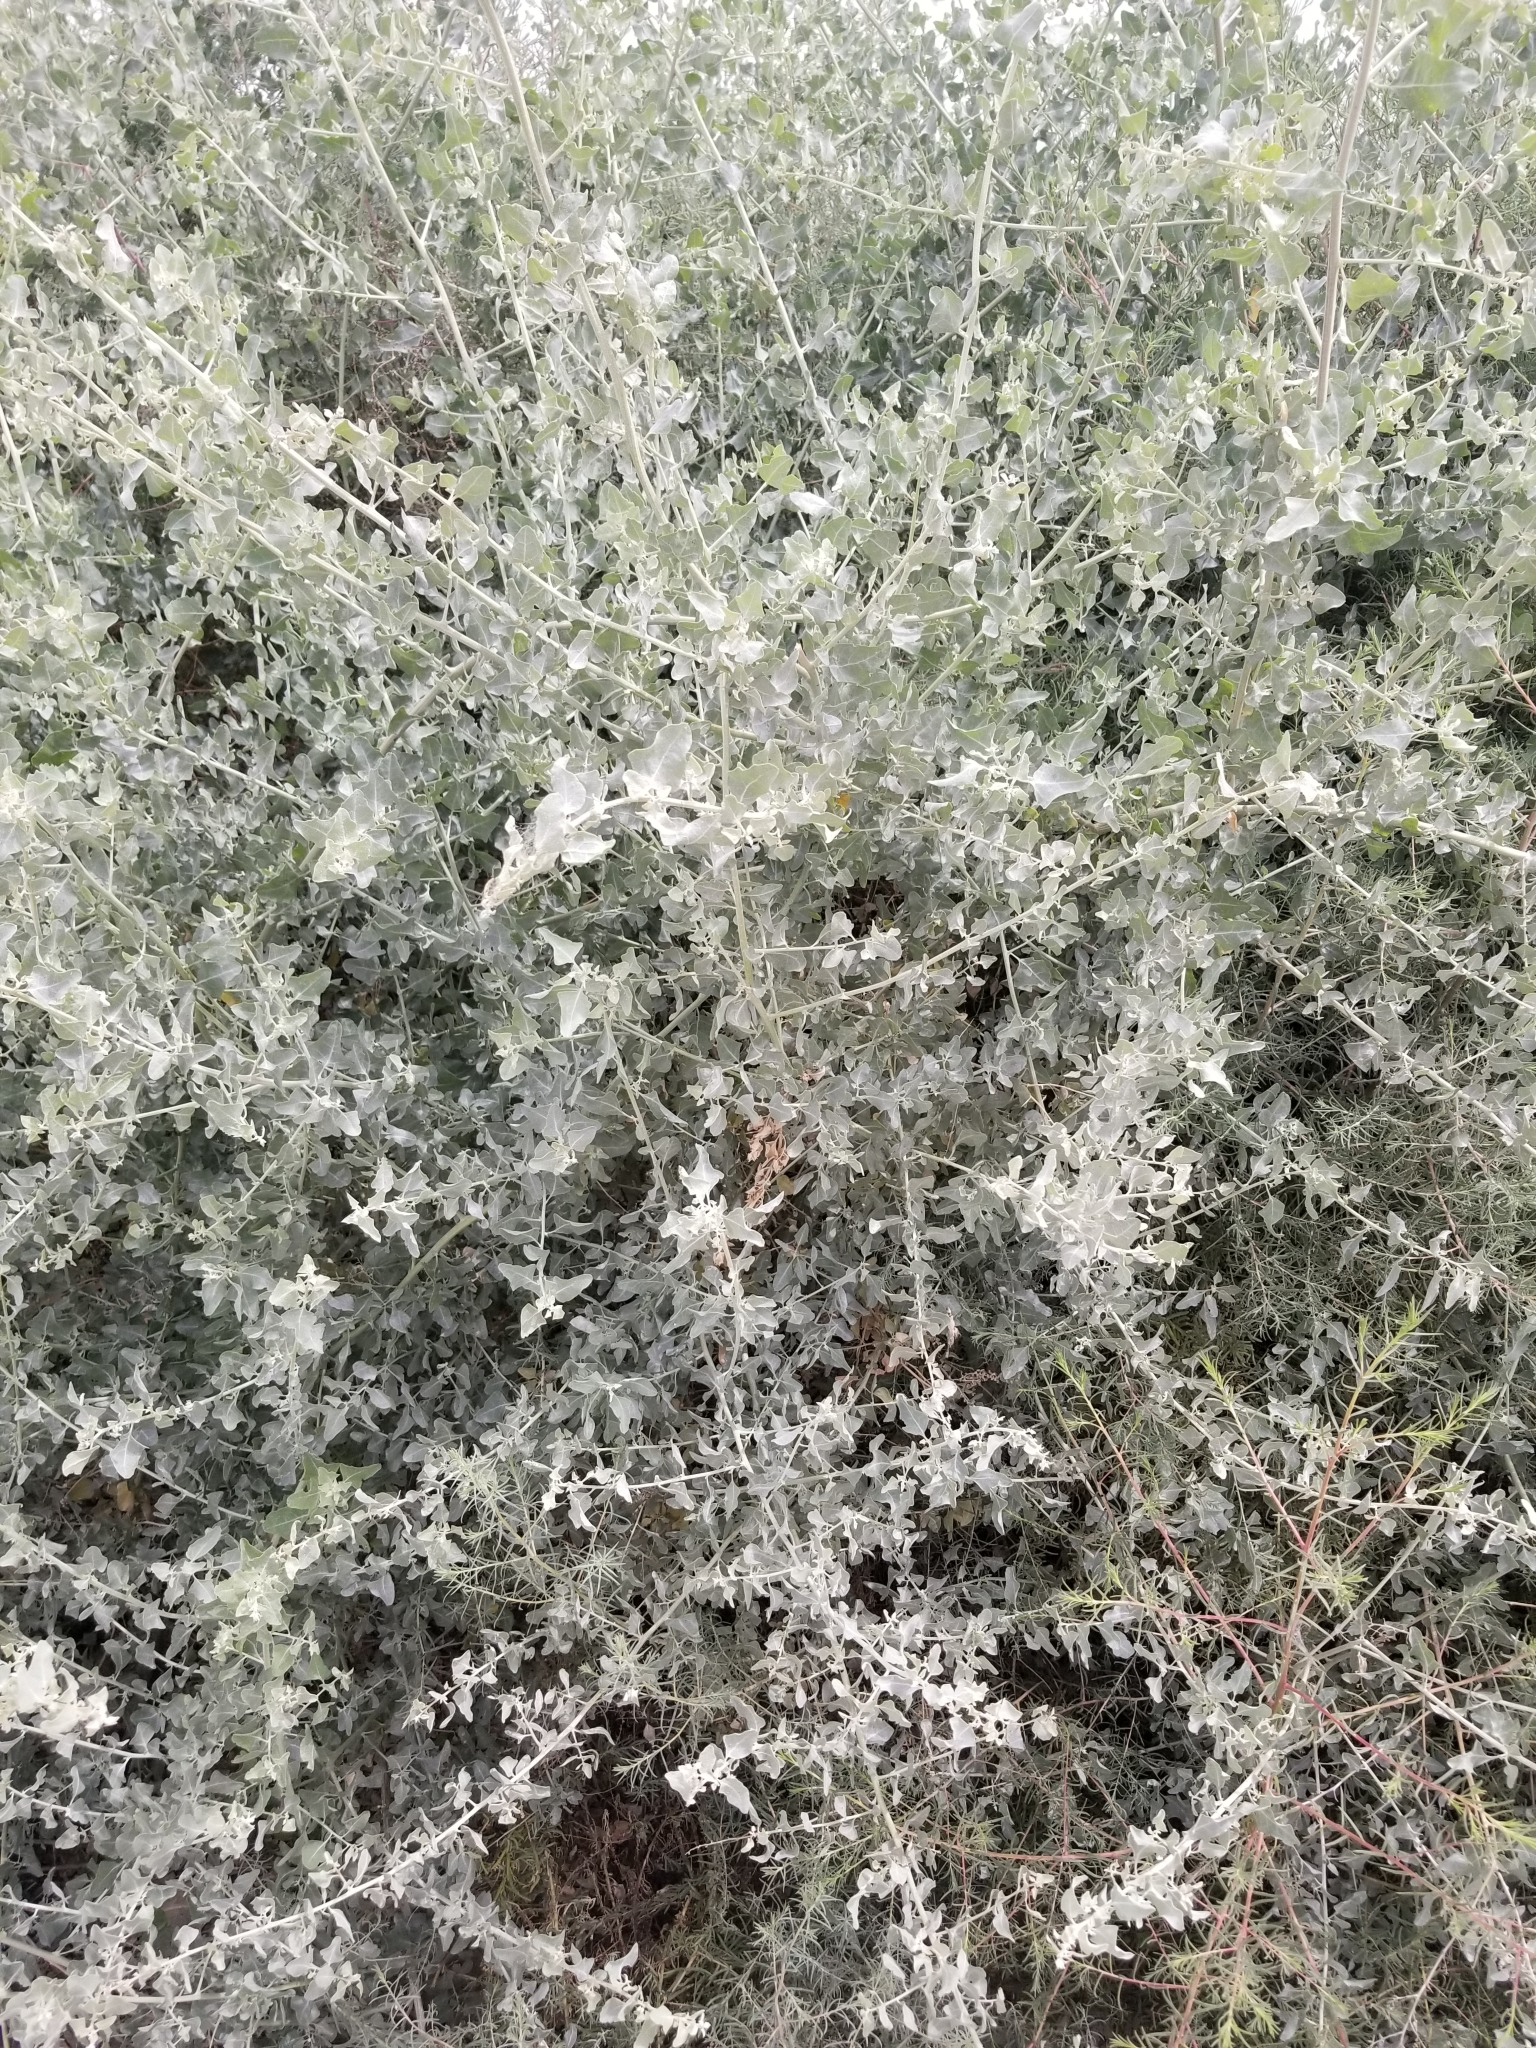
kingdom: Plantae
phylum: Tracheophyta
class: Magnoliopsida
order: Caryophyllales
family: Amaranthaceae
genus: Atriplex
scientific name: Atriplex lentiformis
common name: Big saltbush
